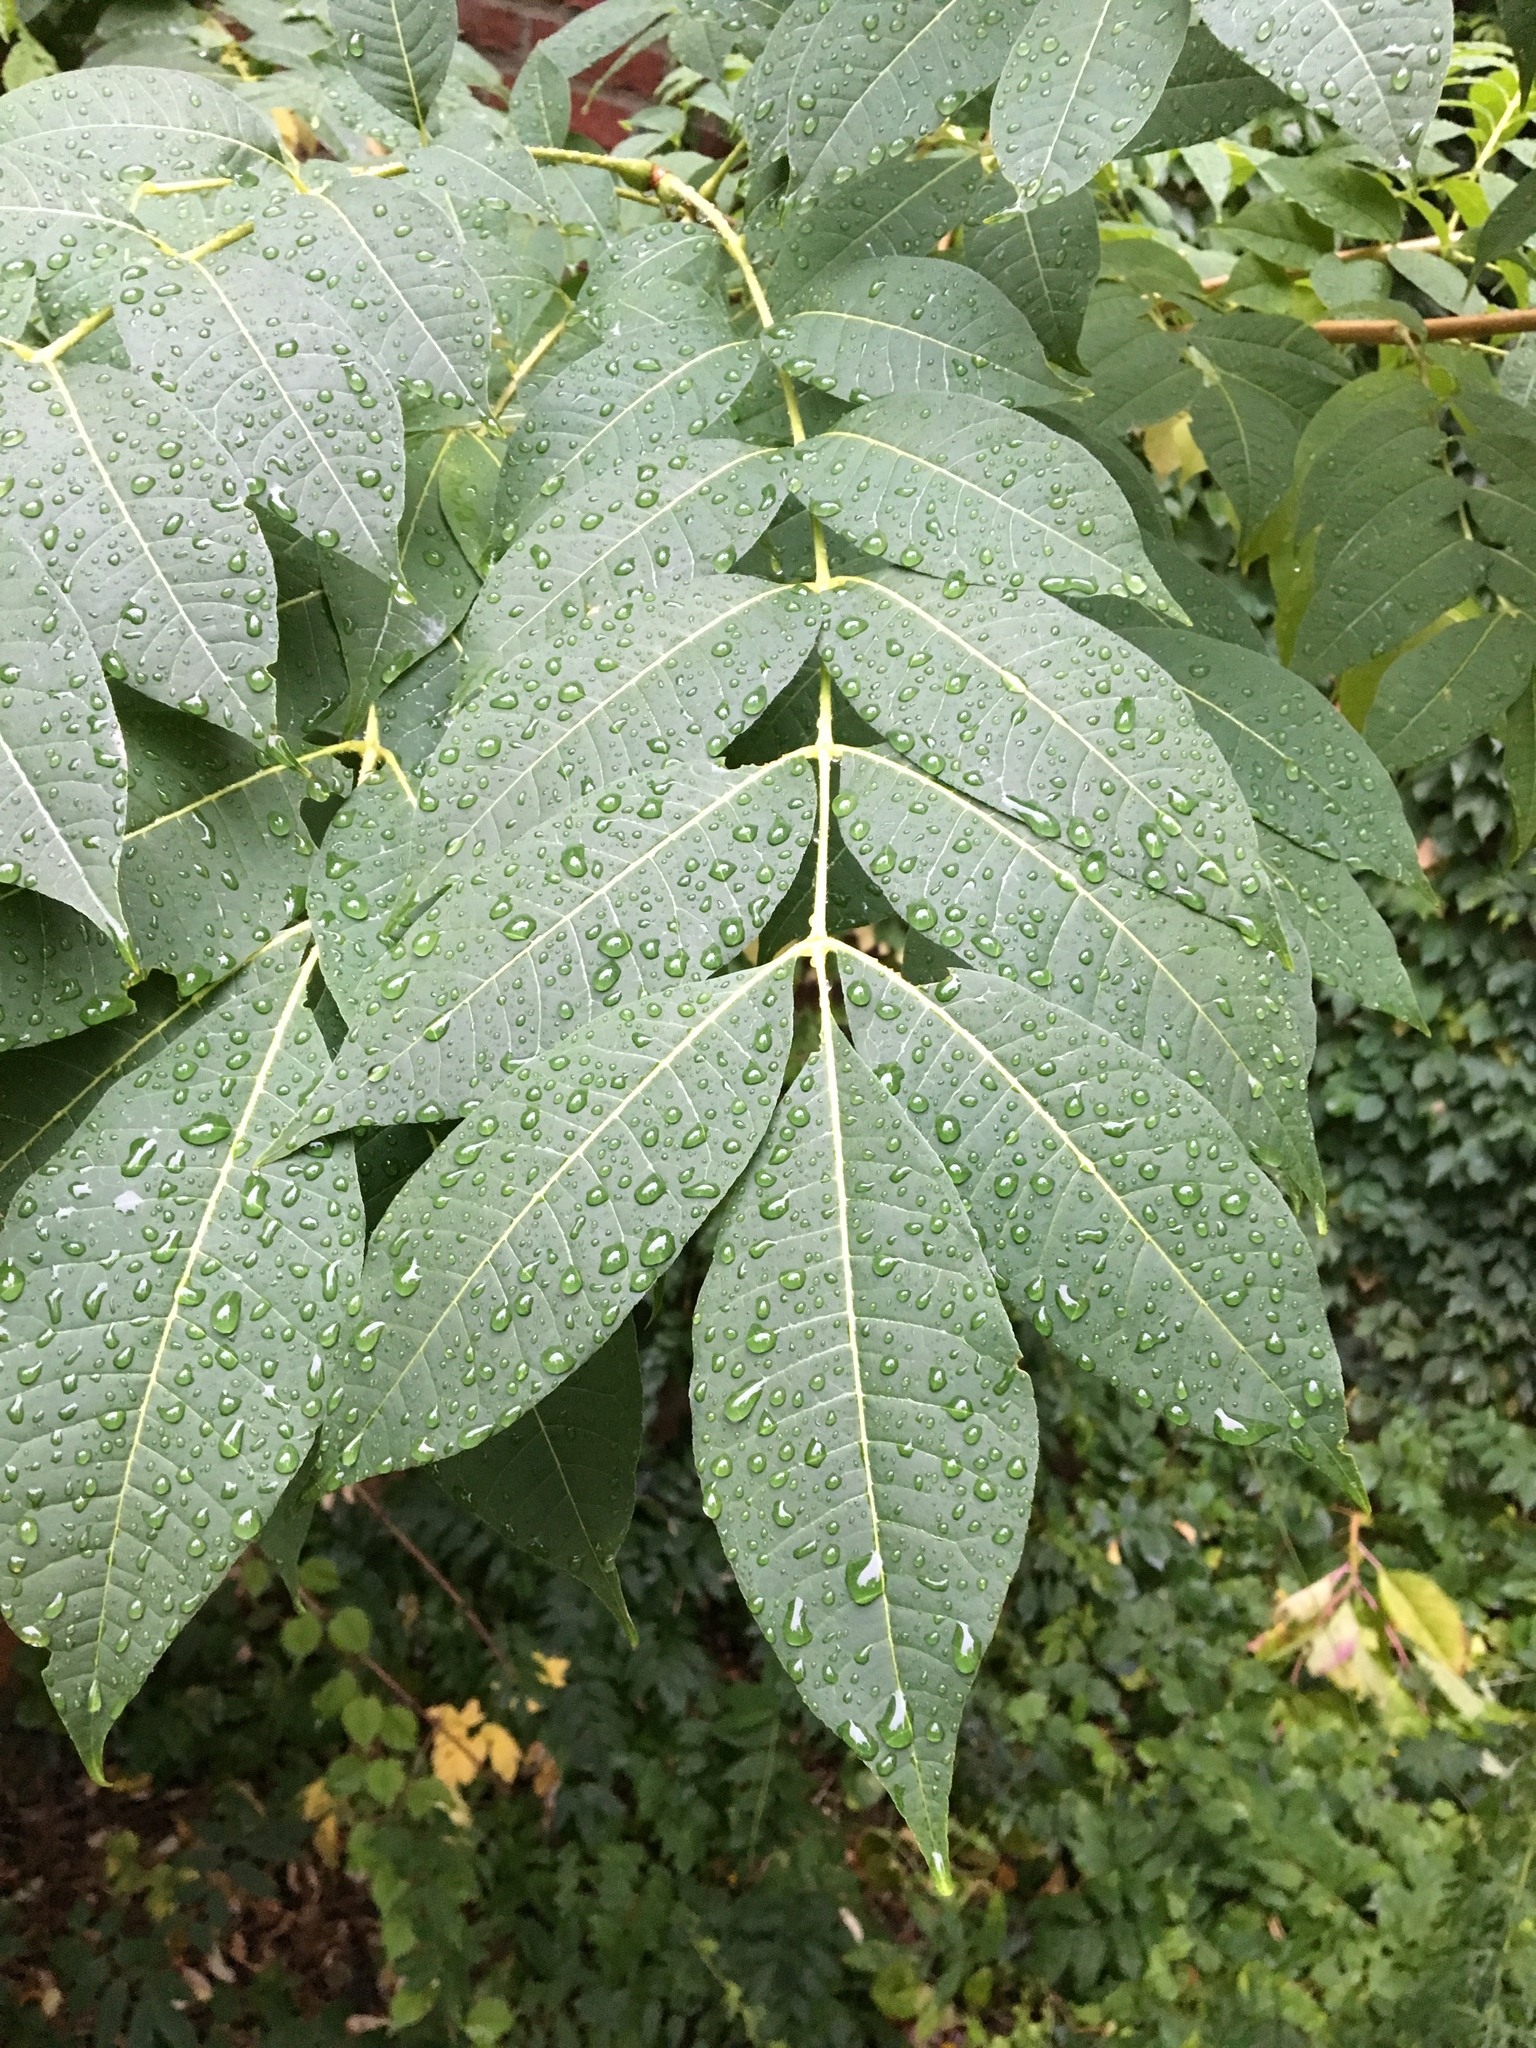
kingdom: Plantae
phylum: Tracheophyta
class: Magnoliopsida
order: Fagales
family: Juglandaceae
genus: Juglans
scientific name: Juglans nigra
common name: Black walnut
